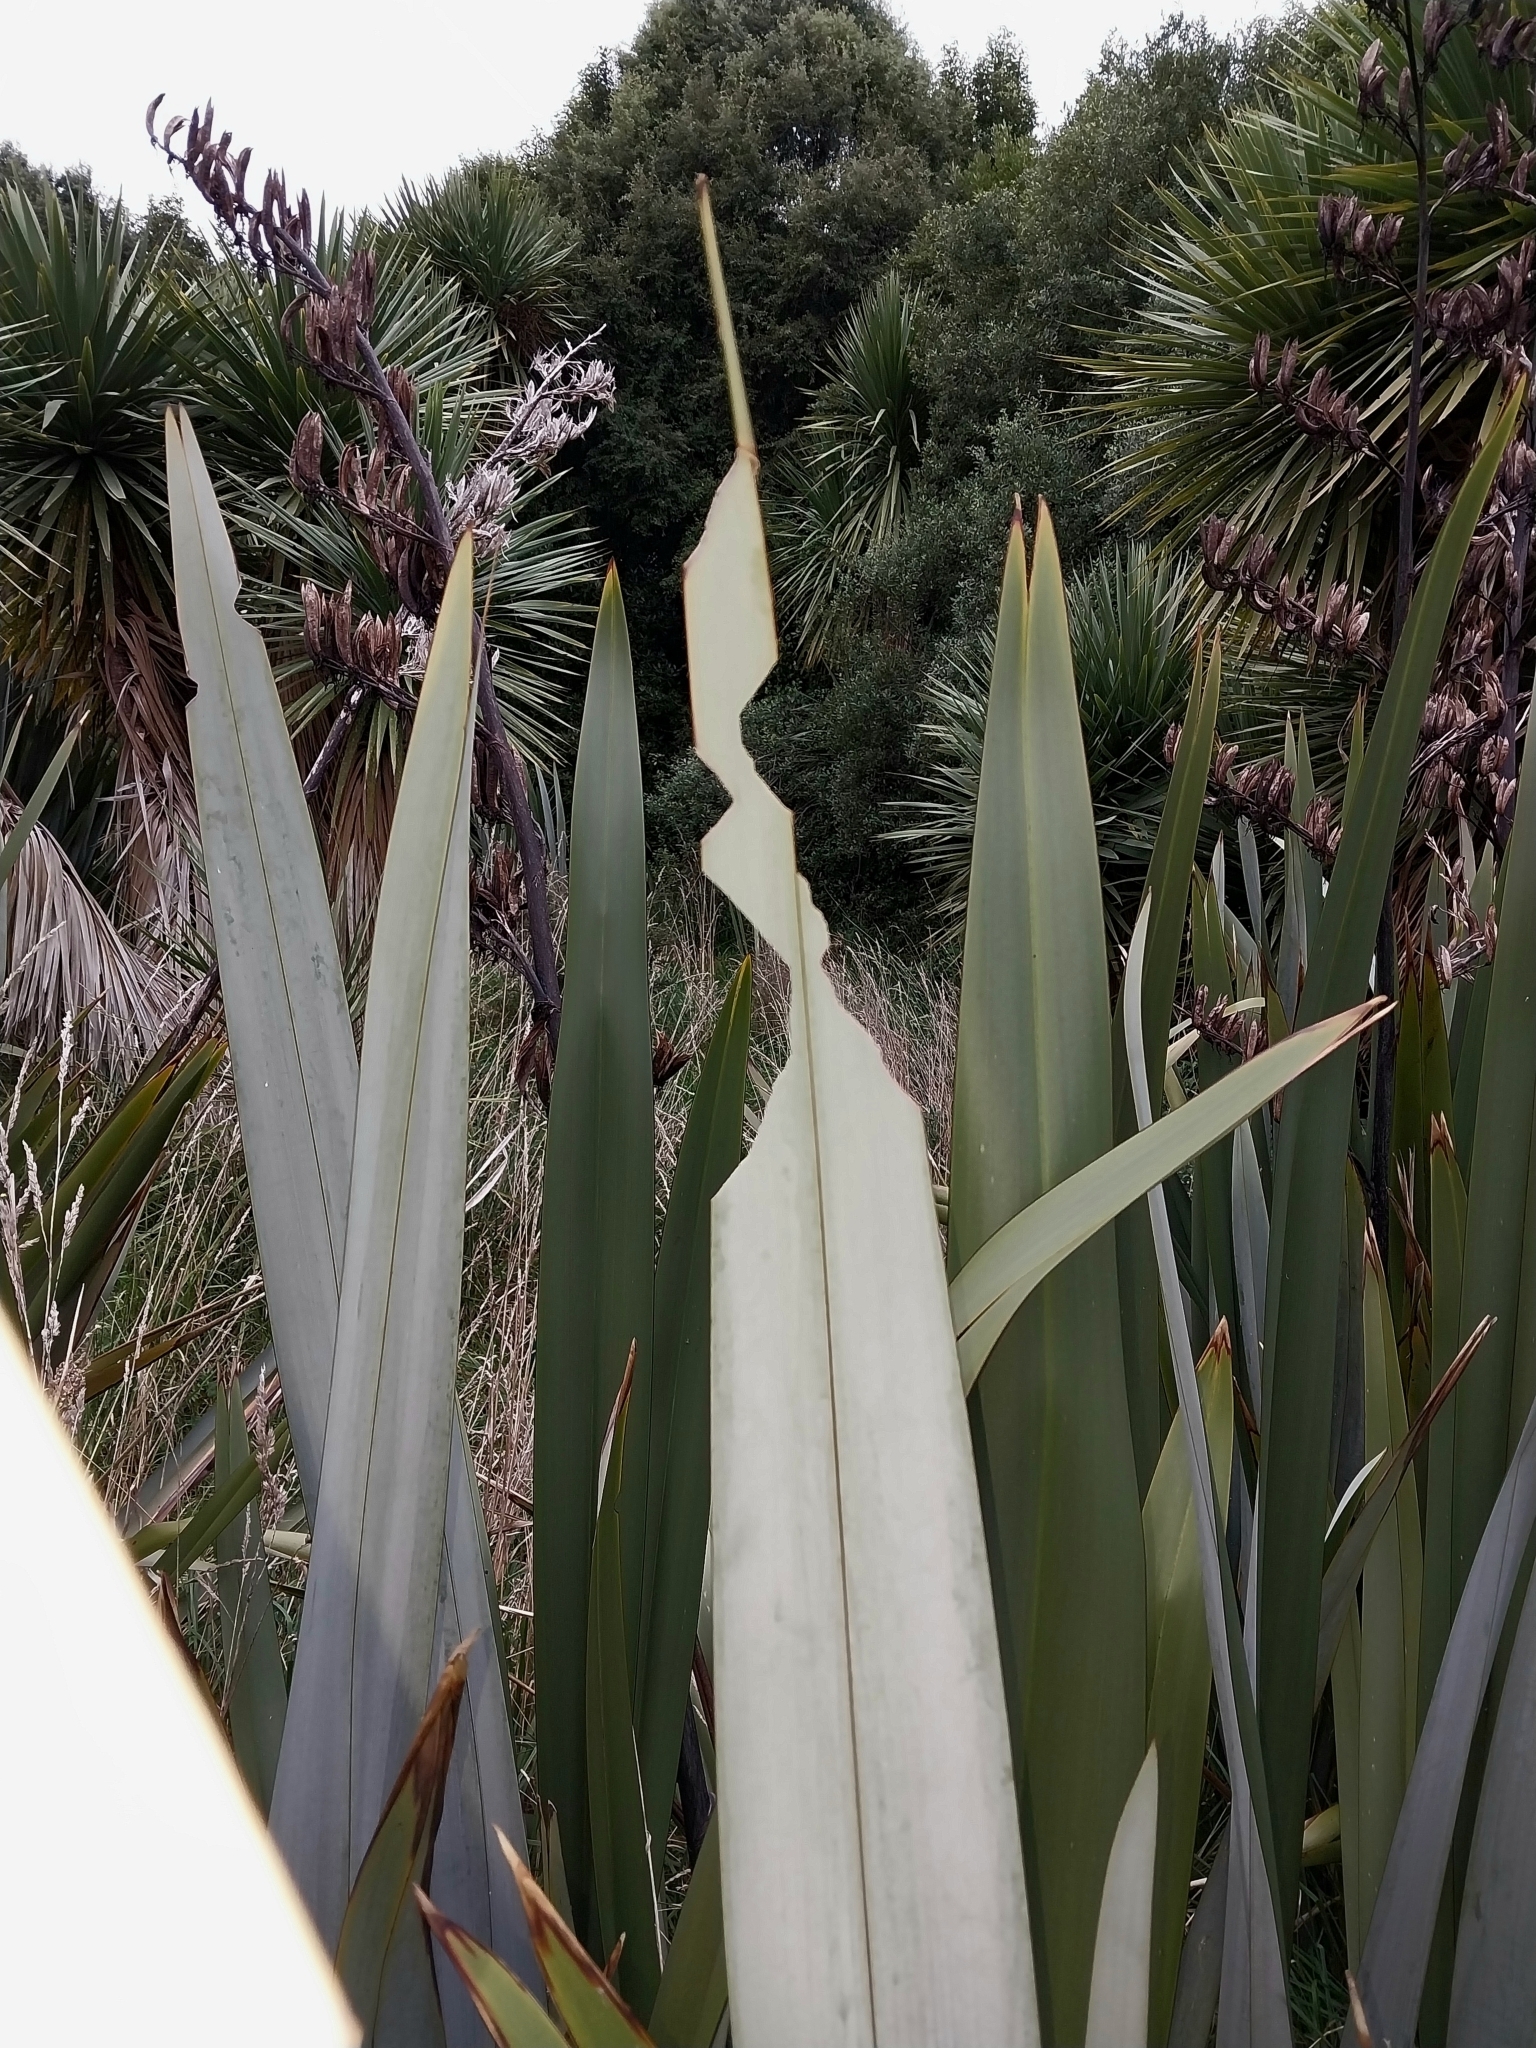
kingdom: Animalia
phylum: Arthropoda
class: Insecta
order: Lepidoptera
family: Noctuidae
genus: Ichneutica
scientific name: Ichneutica
